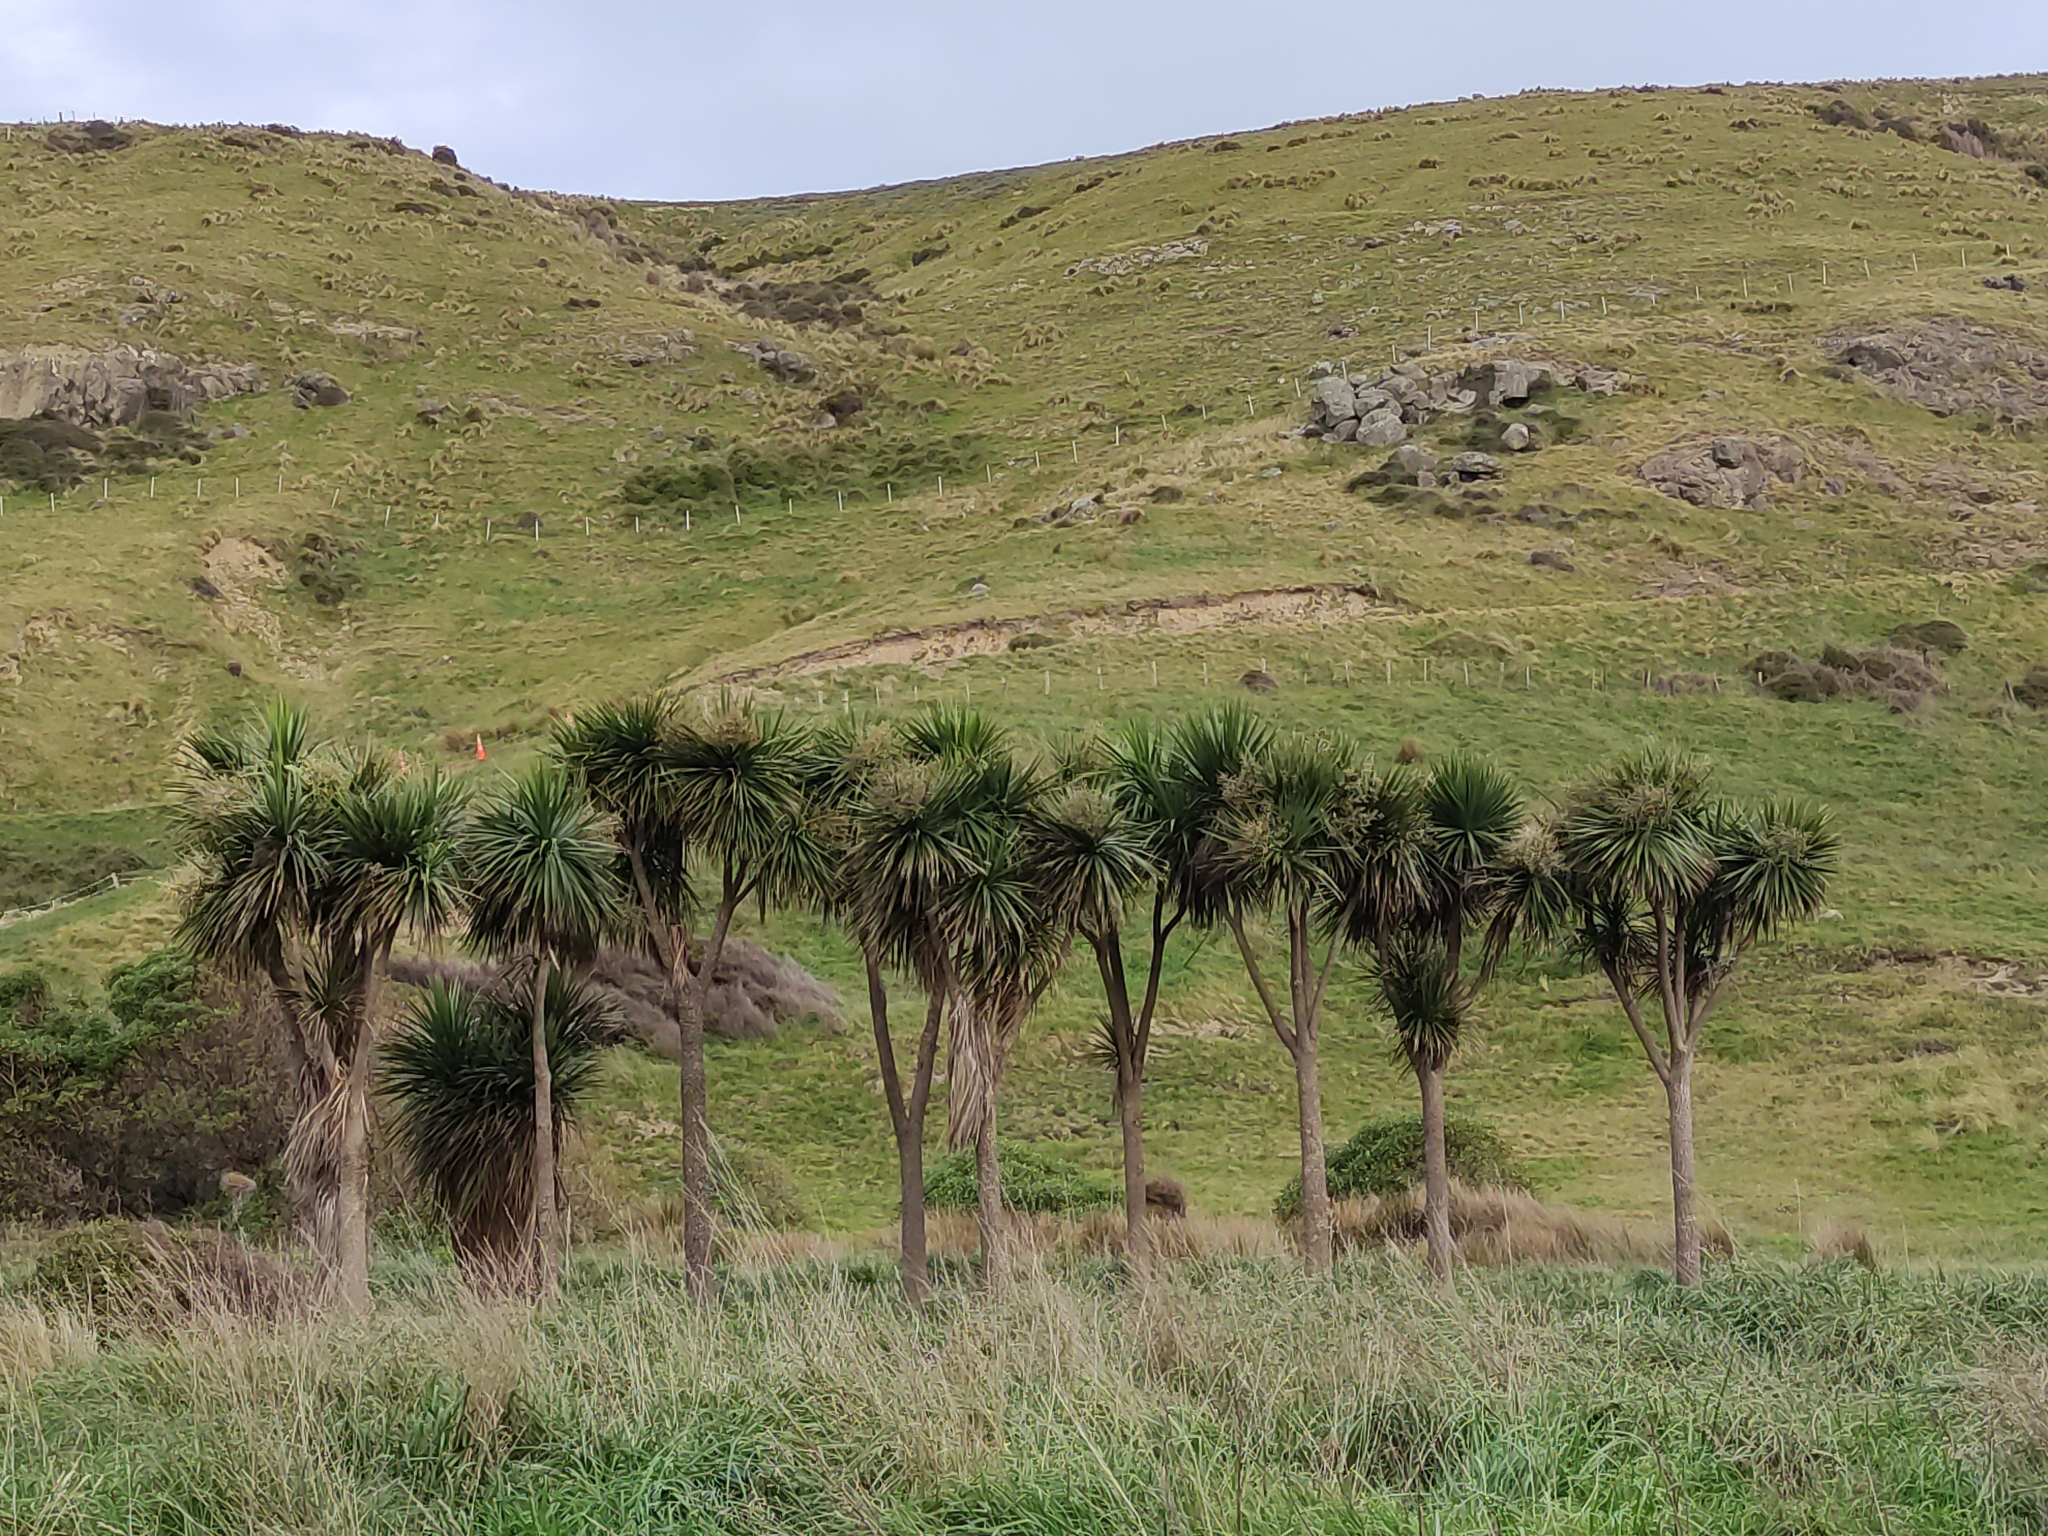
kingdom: Plantae
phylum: Tracheophyta
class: Liliopsida
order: Asparagales
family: Asparagaceae
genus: Cordyline
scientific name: Cordyline australis
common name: Cabbage-palm
